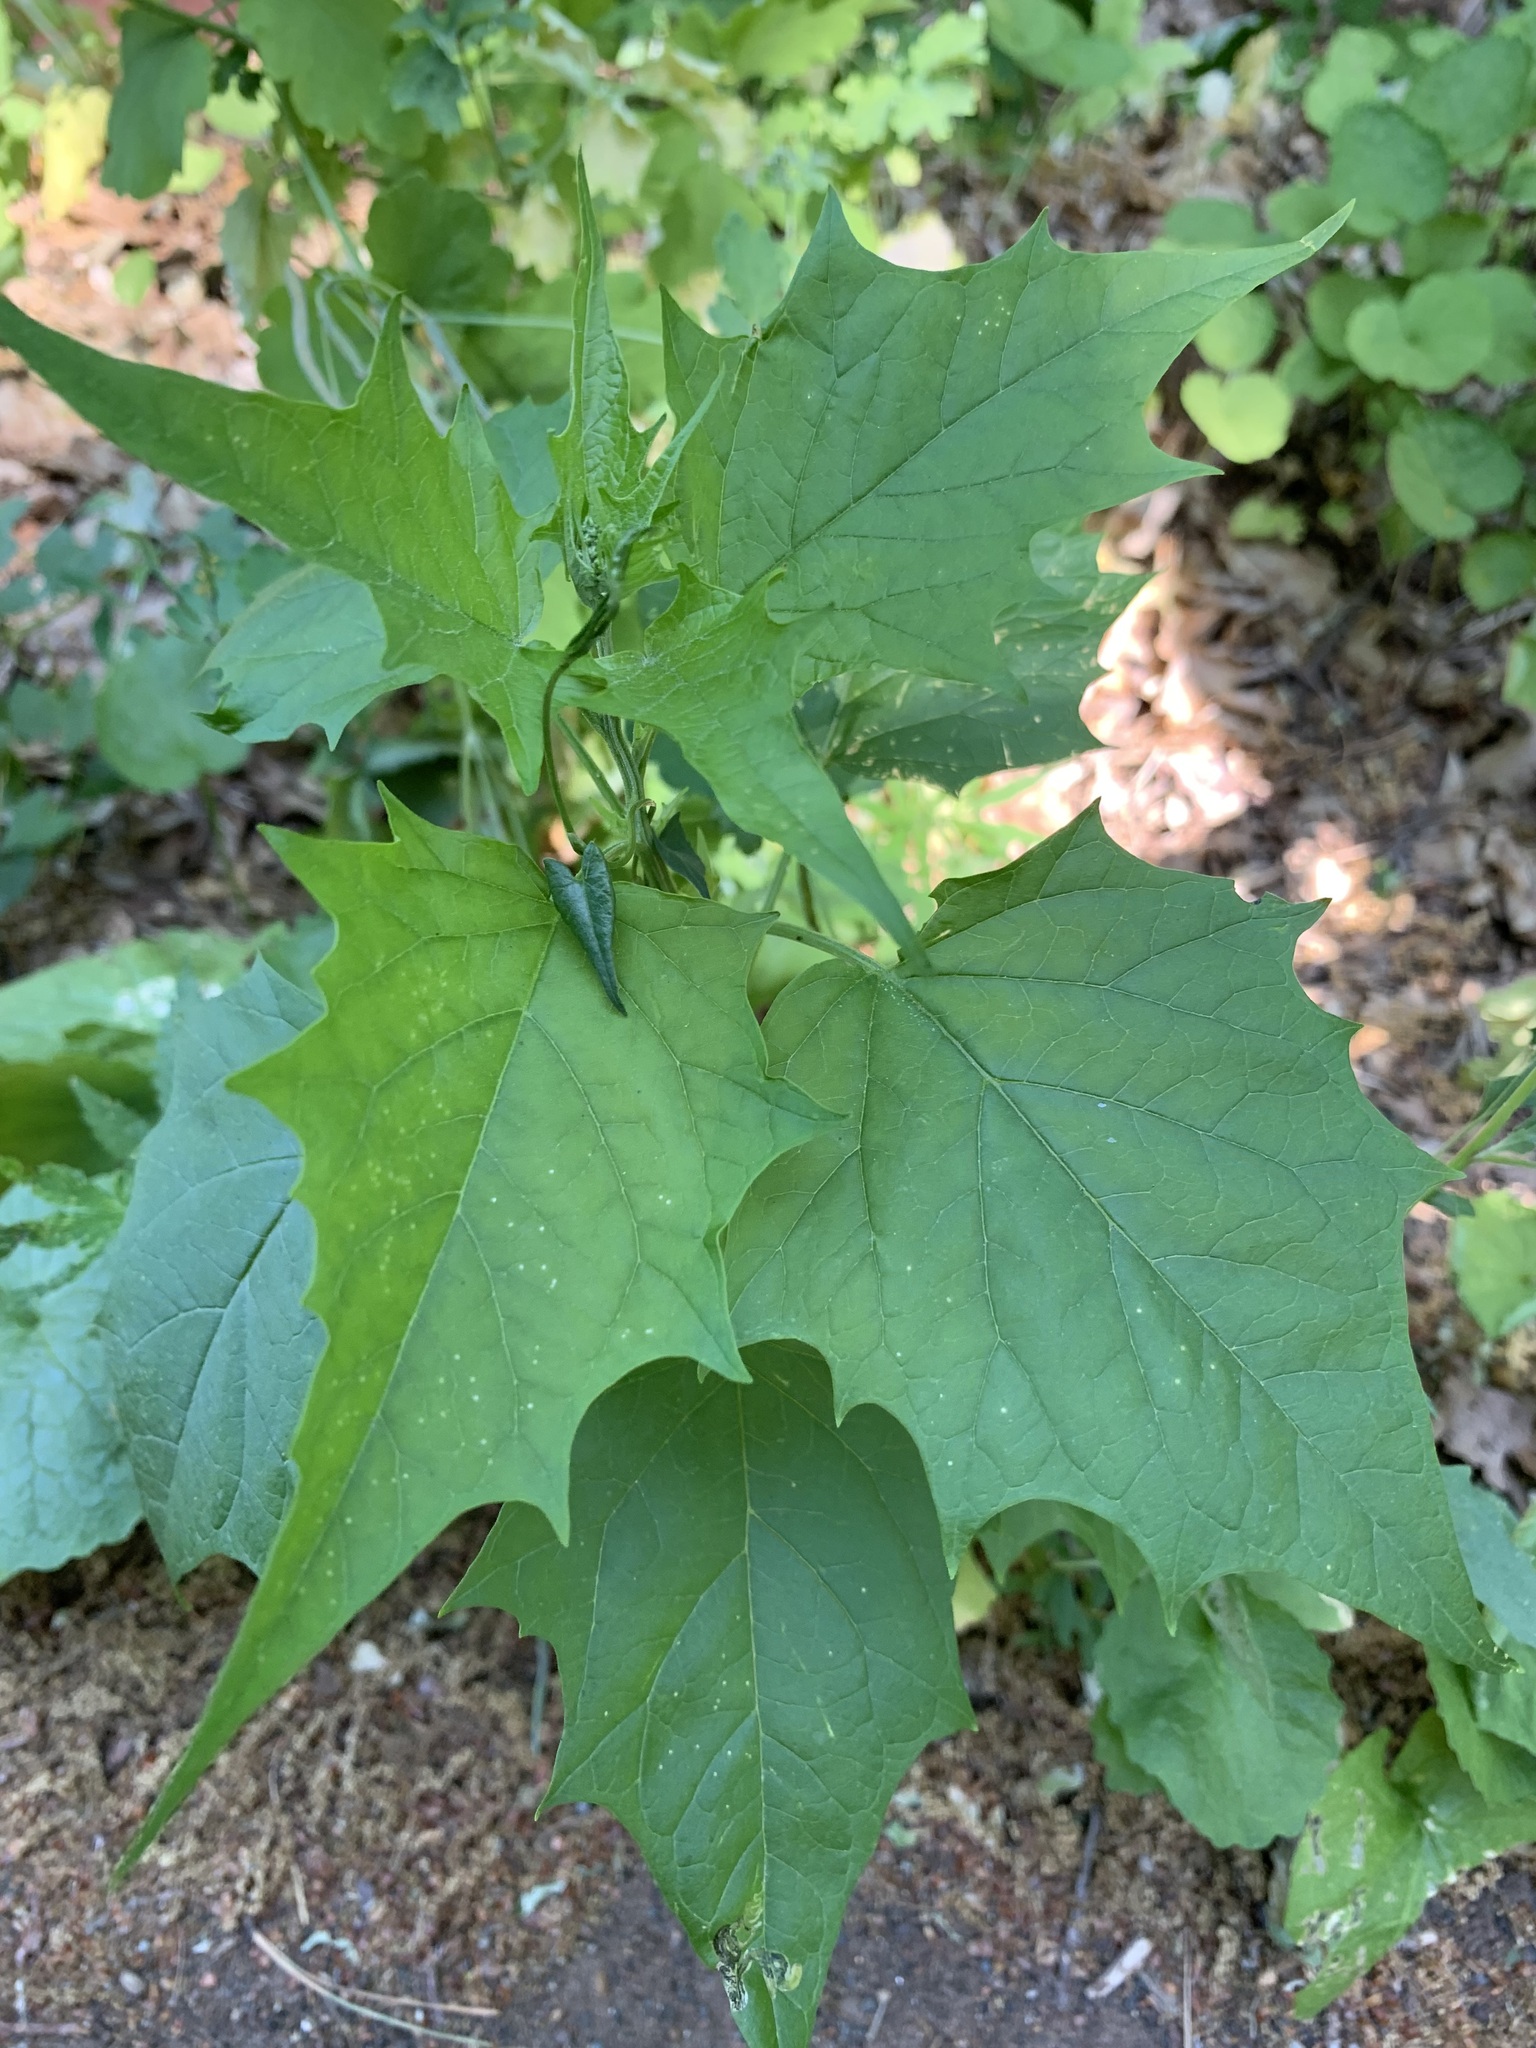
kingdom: Plantae
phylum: Tracheophyta
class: Magnoliopsida
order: Caryophyllales
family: Amaranthaceae
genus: Chenopodiastrum
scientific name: Chenopodiastrum hybridum
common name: Mapleleaf goosefoot
